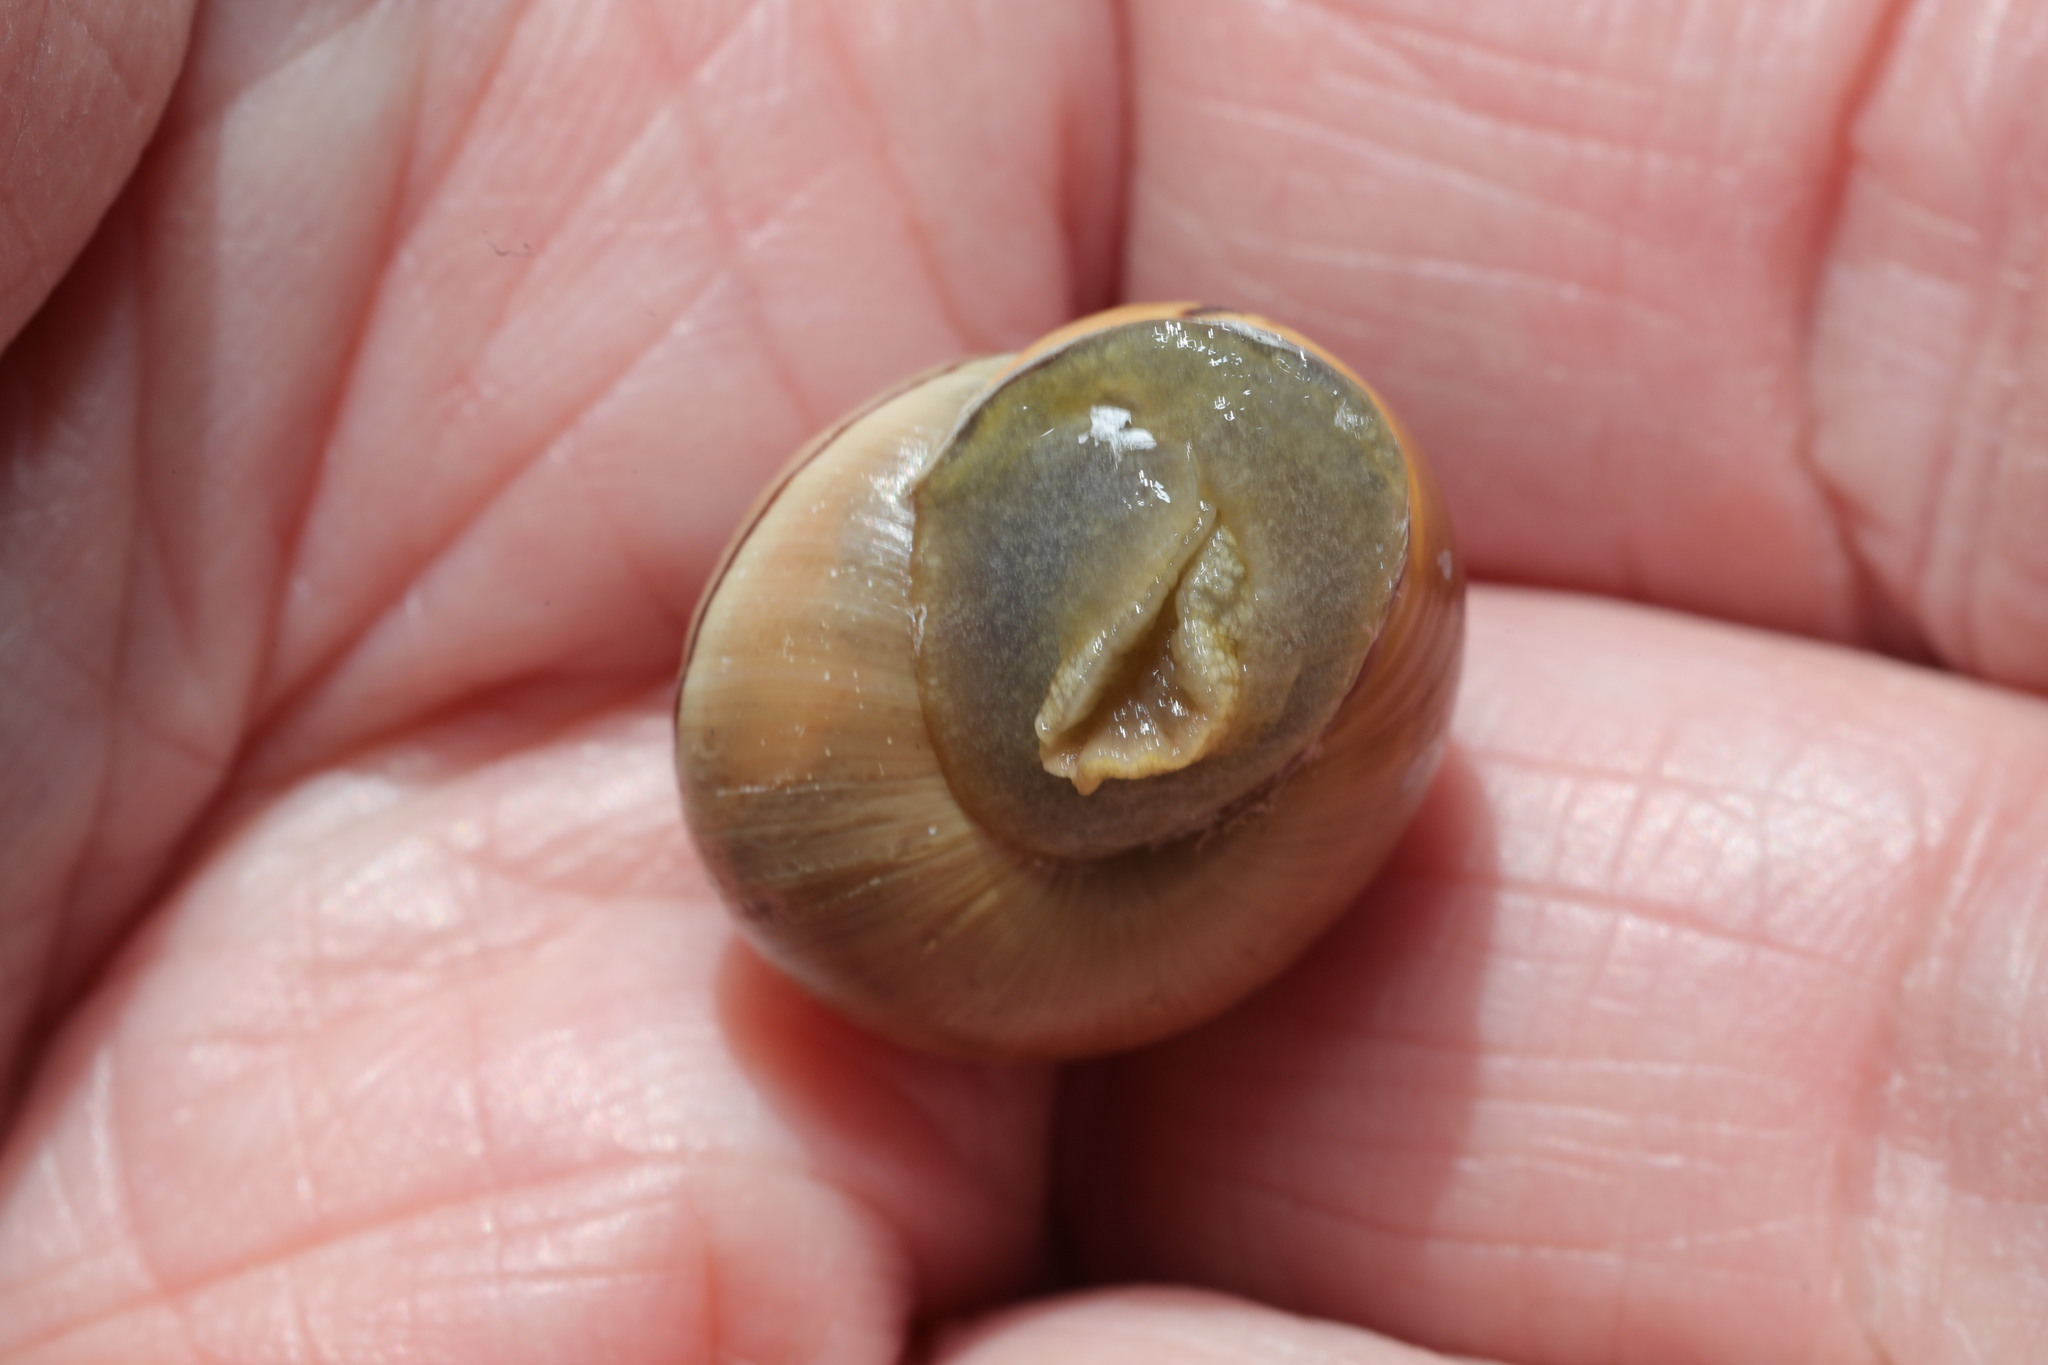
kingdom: Animalia
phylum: Mollusca
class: Gastropoda
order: Stylommatophora
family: Helicidae
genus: Cepaea
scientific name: Cepaea nemoralis
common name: Grovesnail
